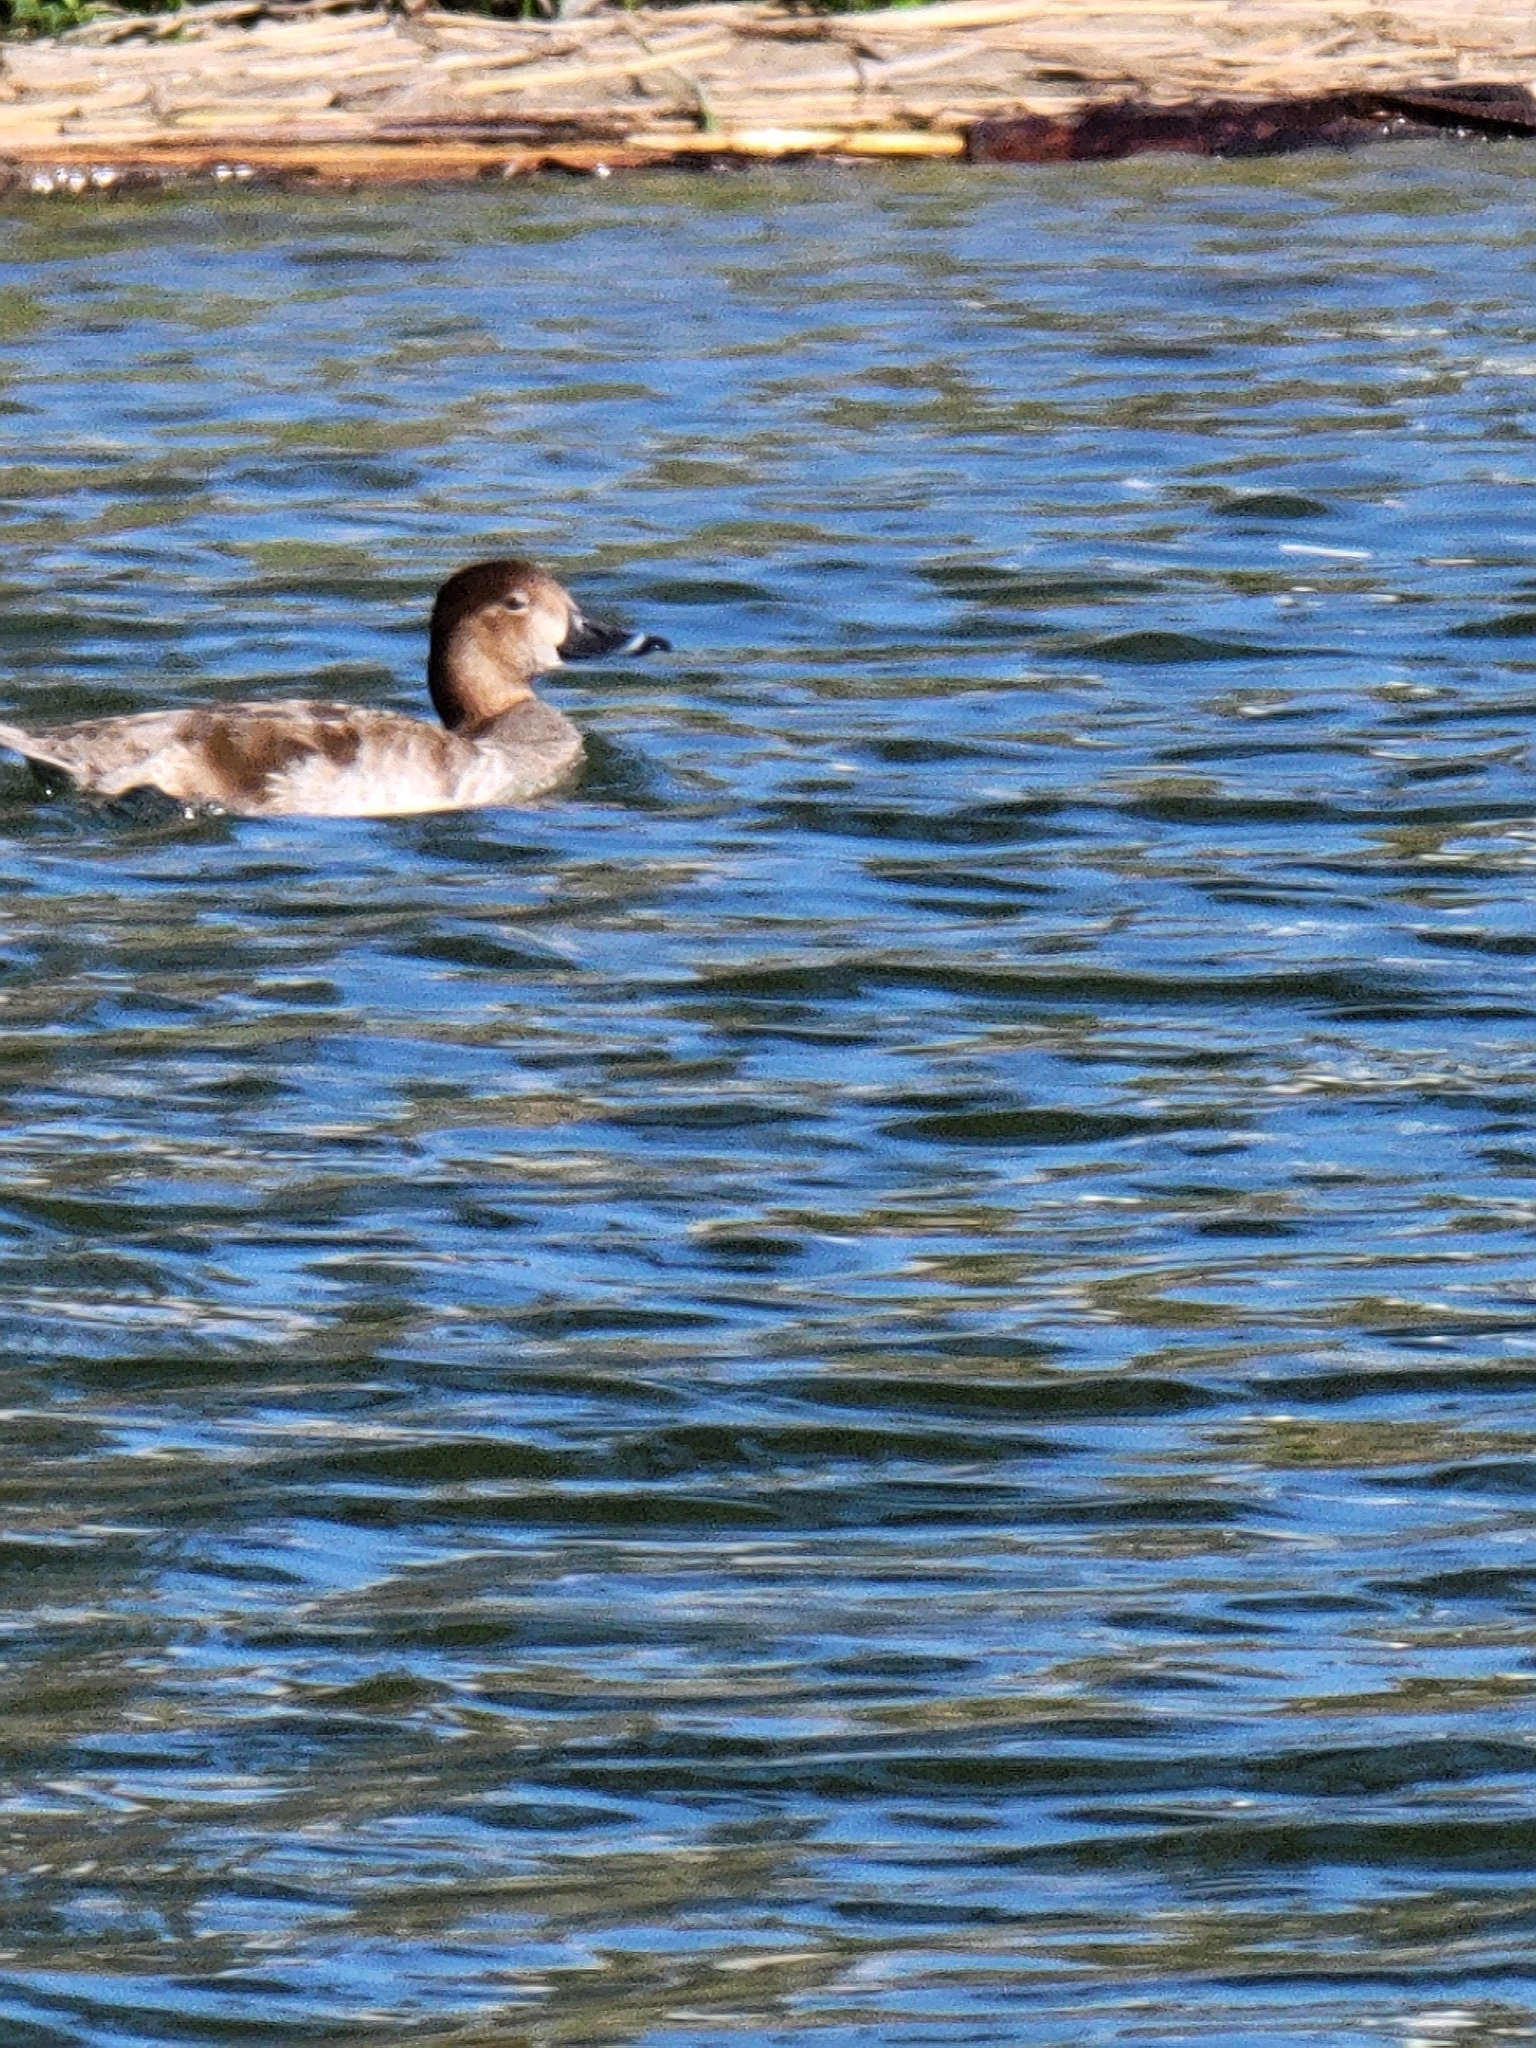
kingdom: Animalia
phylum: Chordata
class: Aves
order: Anseriformes
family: Anatidae
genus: Aythya
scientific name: Aythya americana
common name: Redhead
